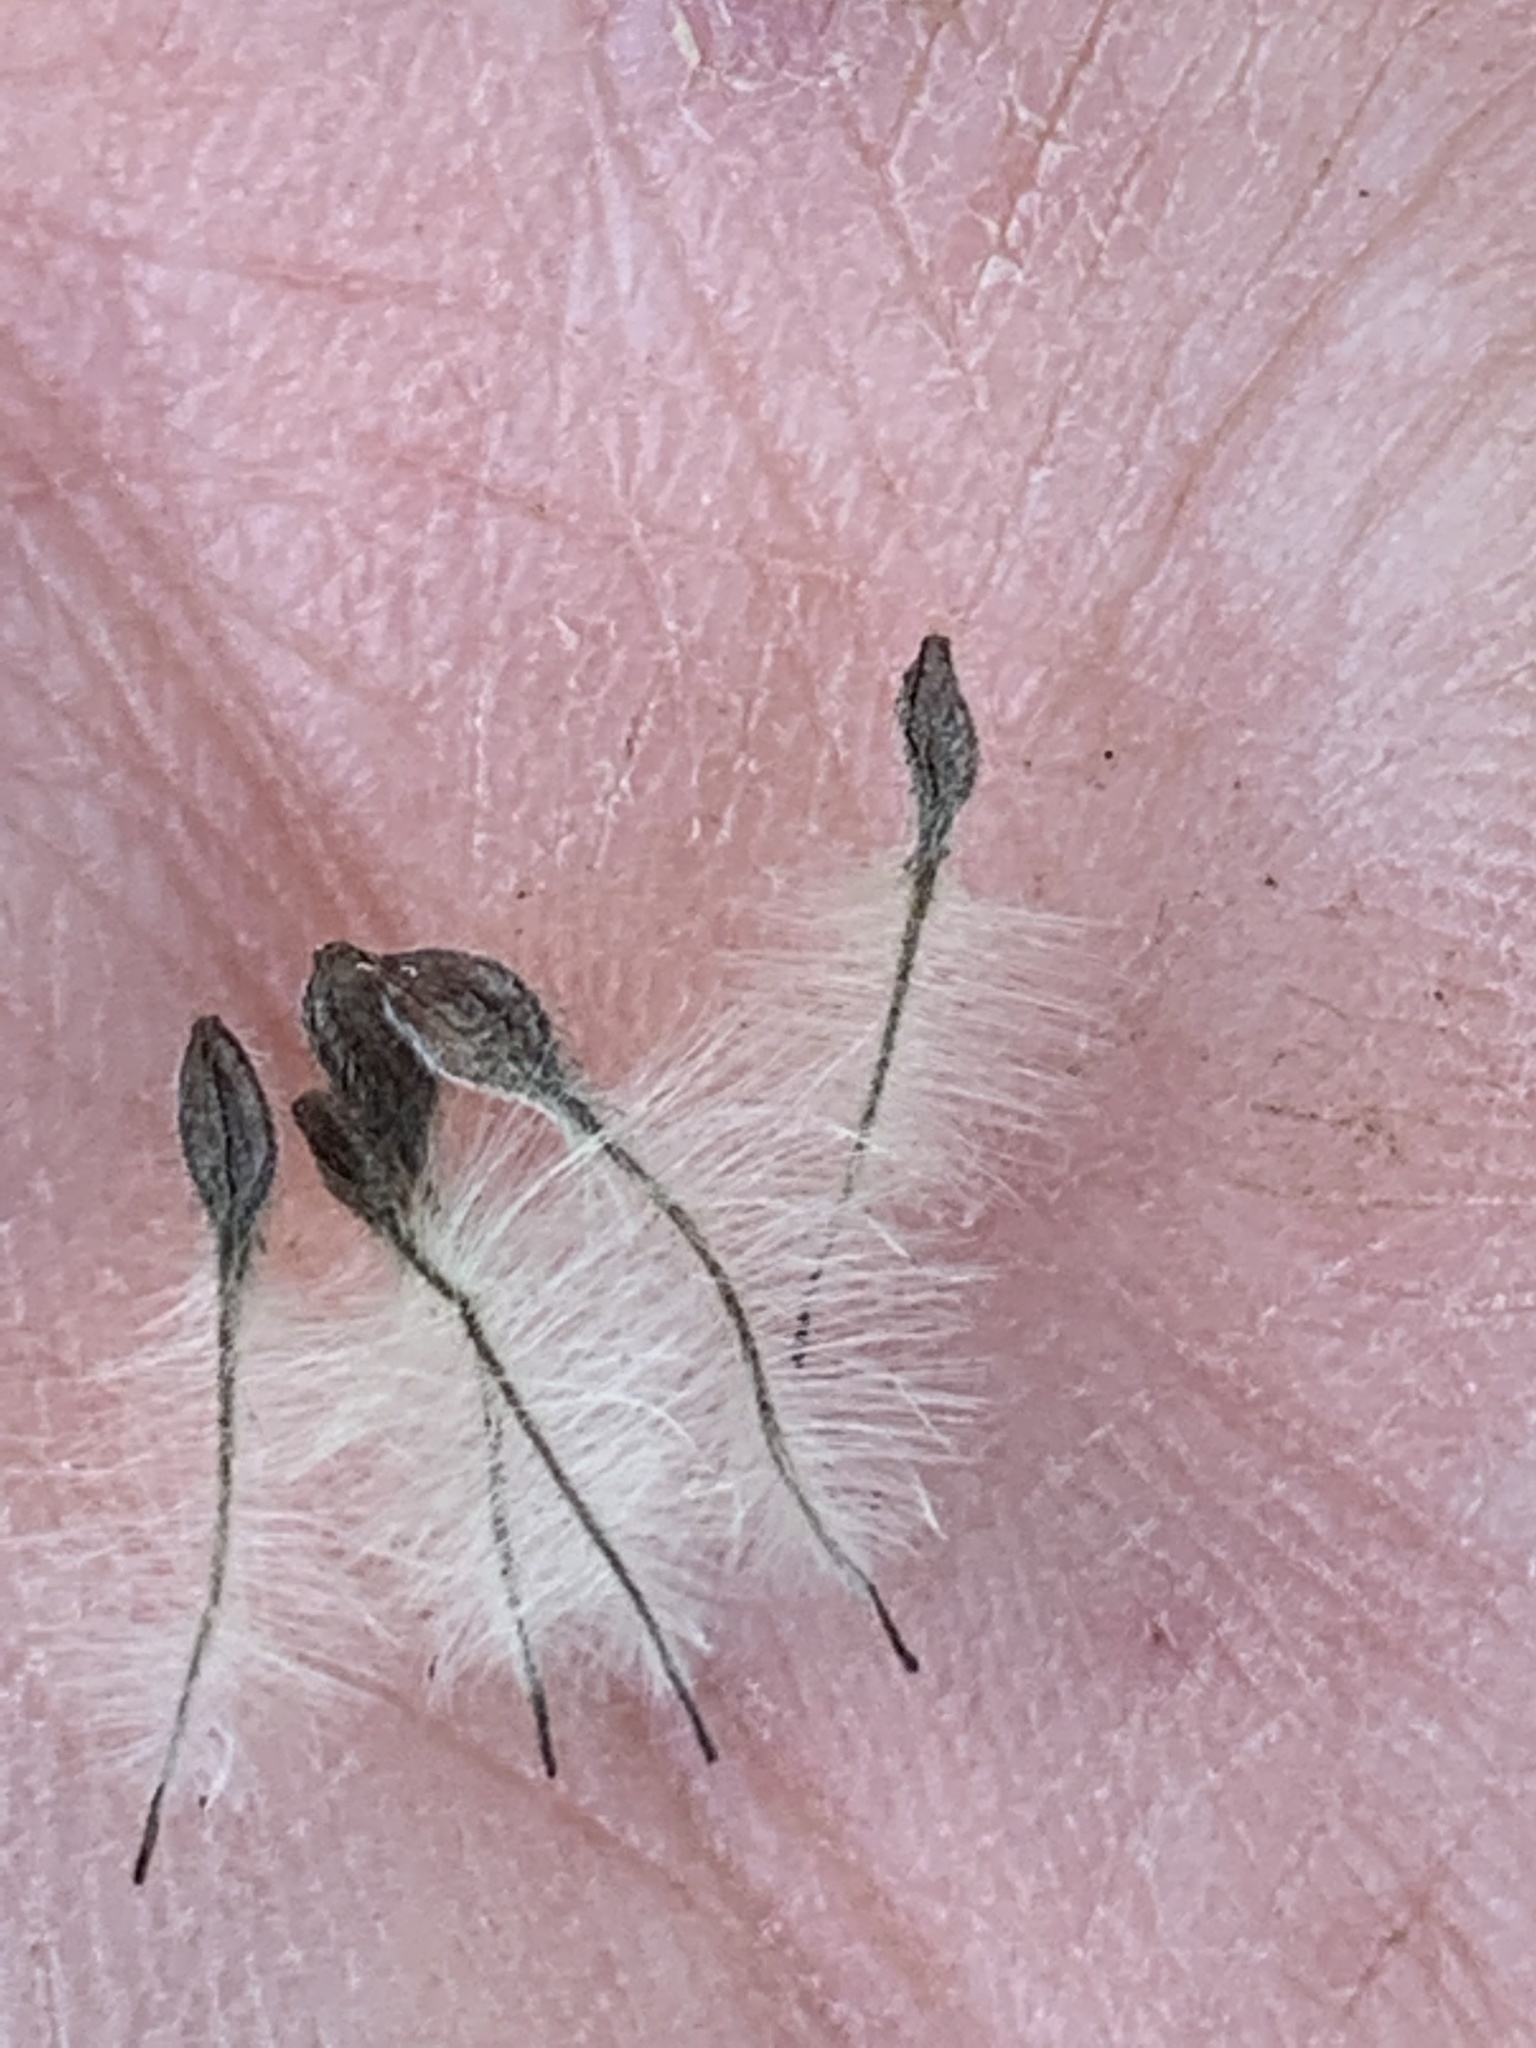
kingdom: Plantae
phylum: Tracheophyta
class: Magnoliopsida
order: Ranunculales
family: Ranunculaceae
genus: Clematis
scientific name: Clematis vitalba
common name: Evergreen clematis
